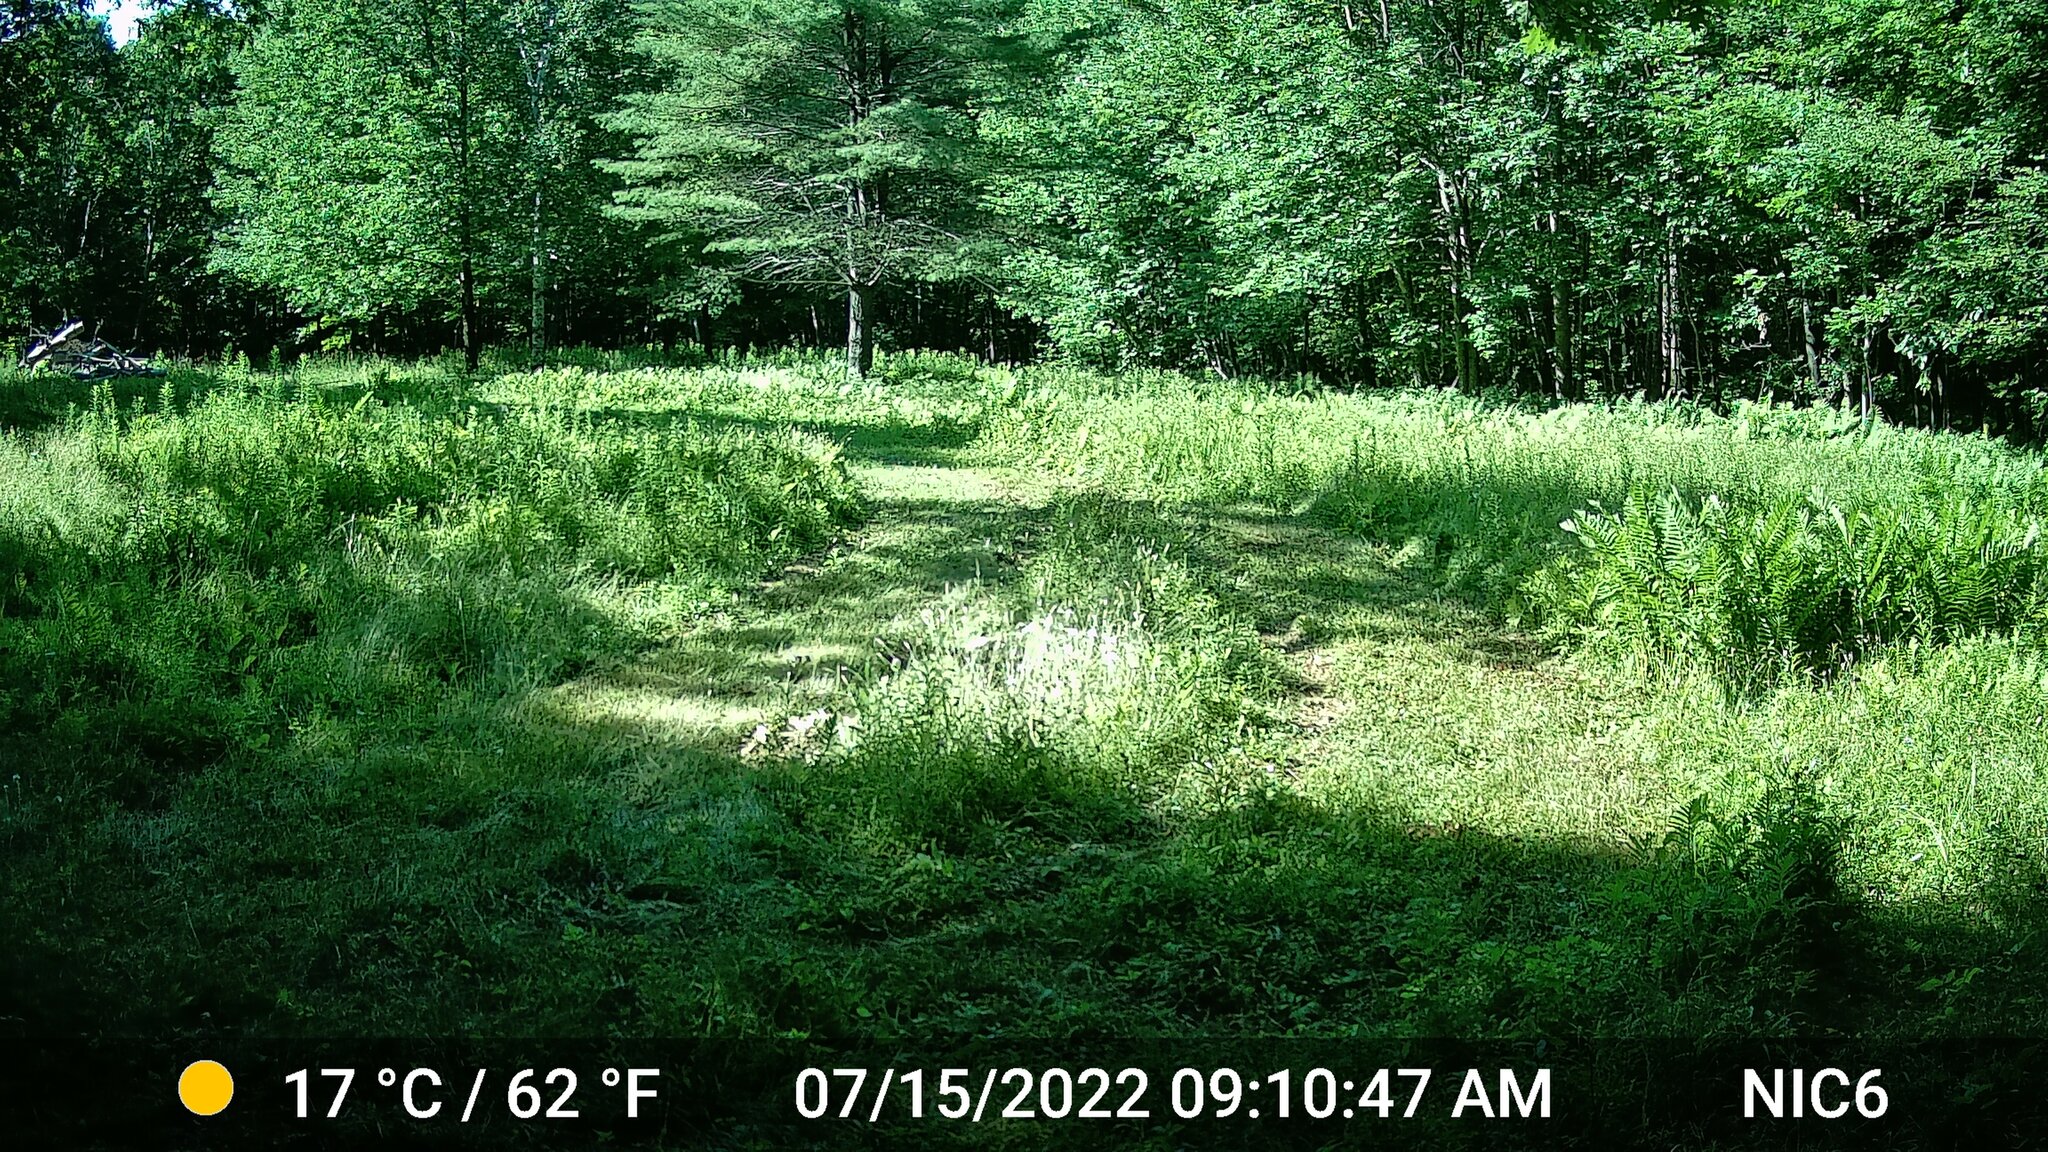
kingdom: Animalia
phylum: Chordata
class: Aves
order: Galliformes
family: Phasianidae
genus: Meleagris
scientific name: Meleagris gallopavo
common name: Wild turkey
